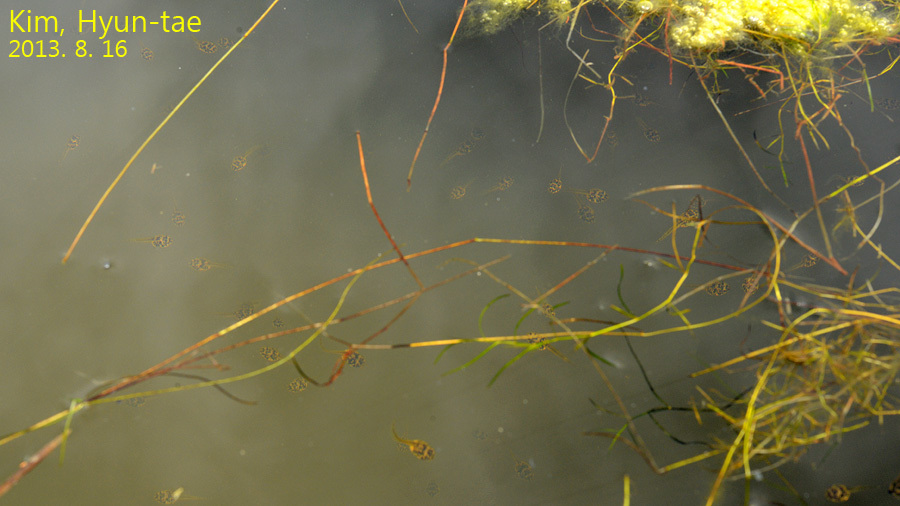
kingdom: Animalia
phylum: Chordata
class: Amphibia
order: Anura
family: Ranidae
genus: Lithobates
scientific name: Lithobates catesbeianus
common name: American bullfrog
